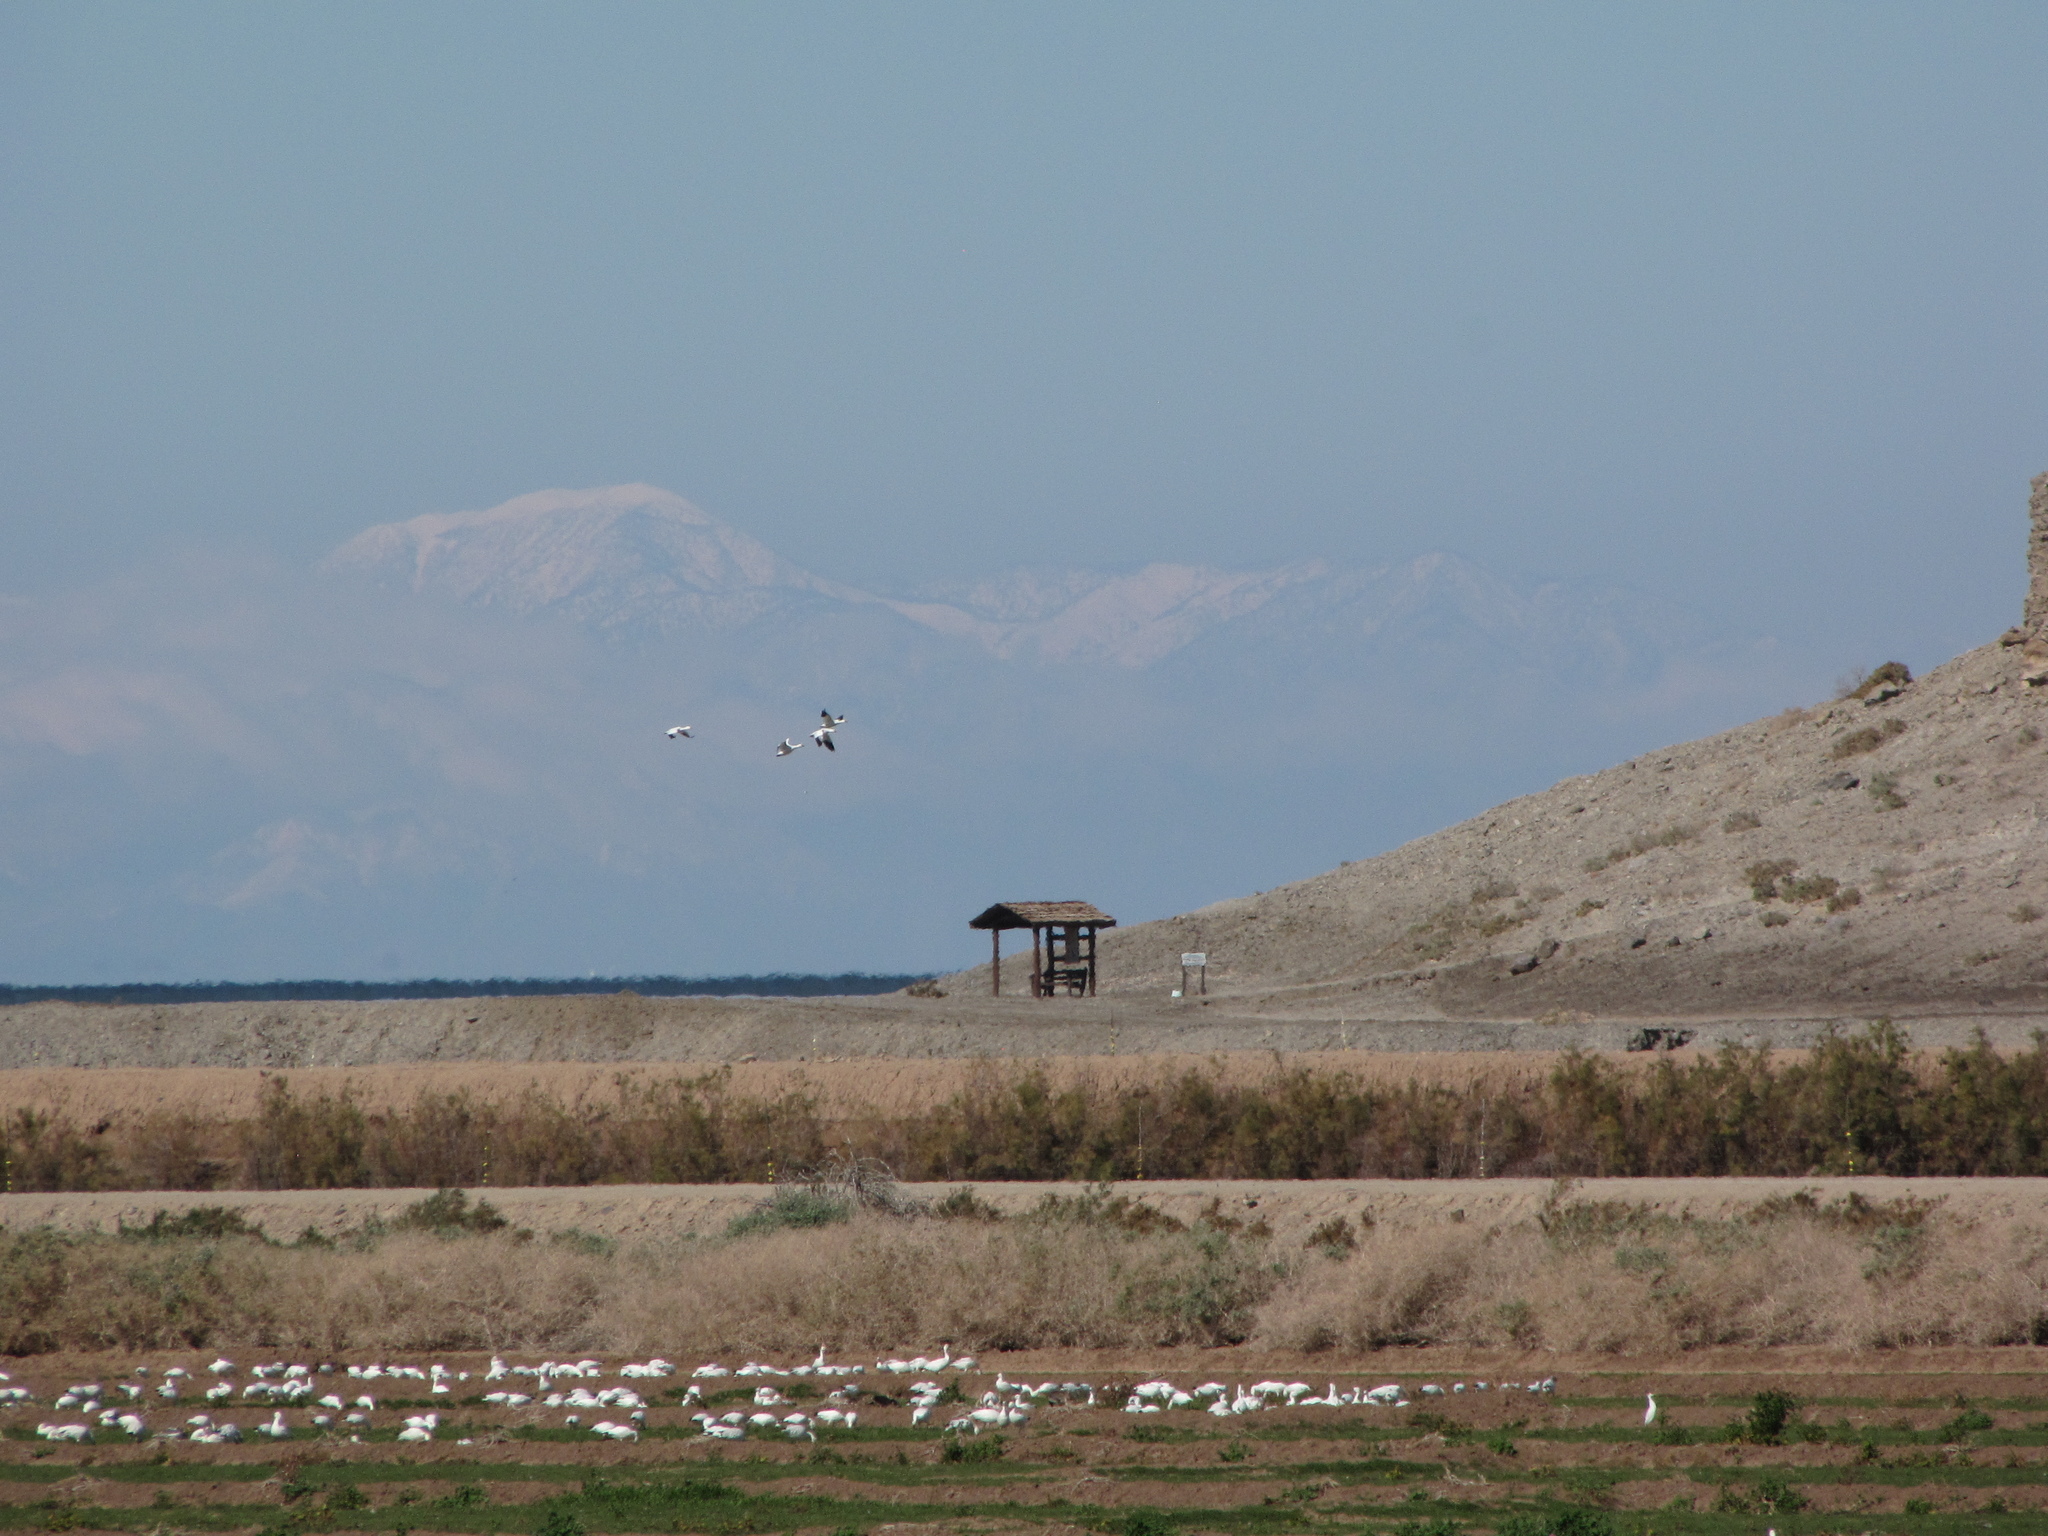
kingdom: Animalia
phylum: Chordata
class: Aves
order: Anseriformes
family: Anatidae
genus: Anser
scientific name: Anser caerulescens
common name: Snow goose
